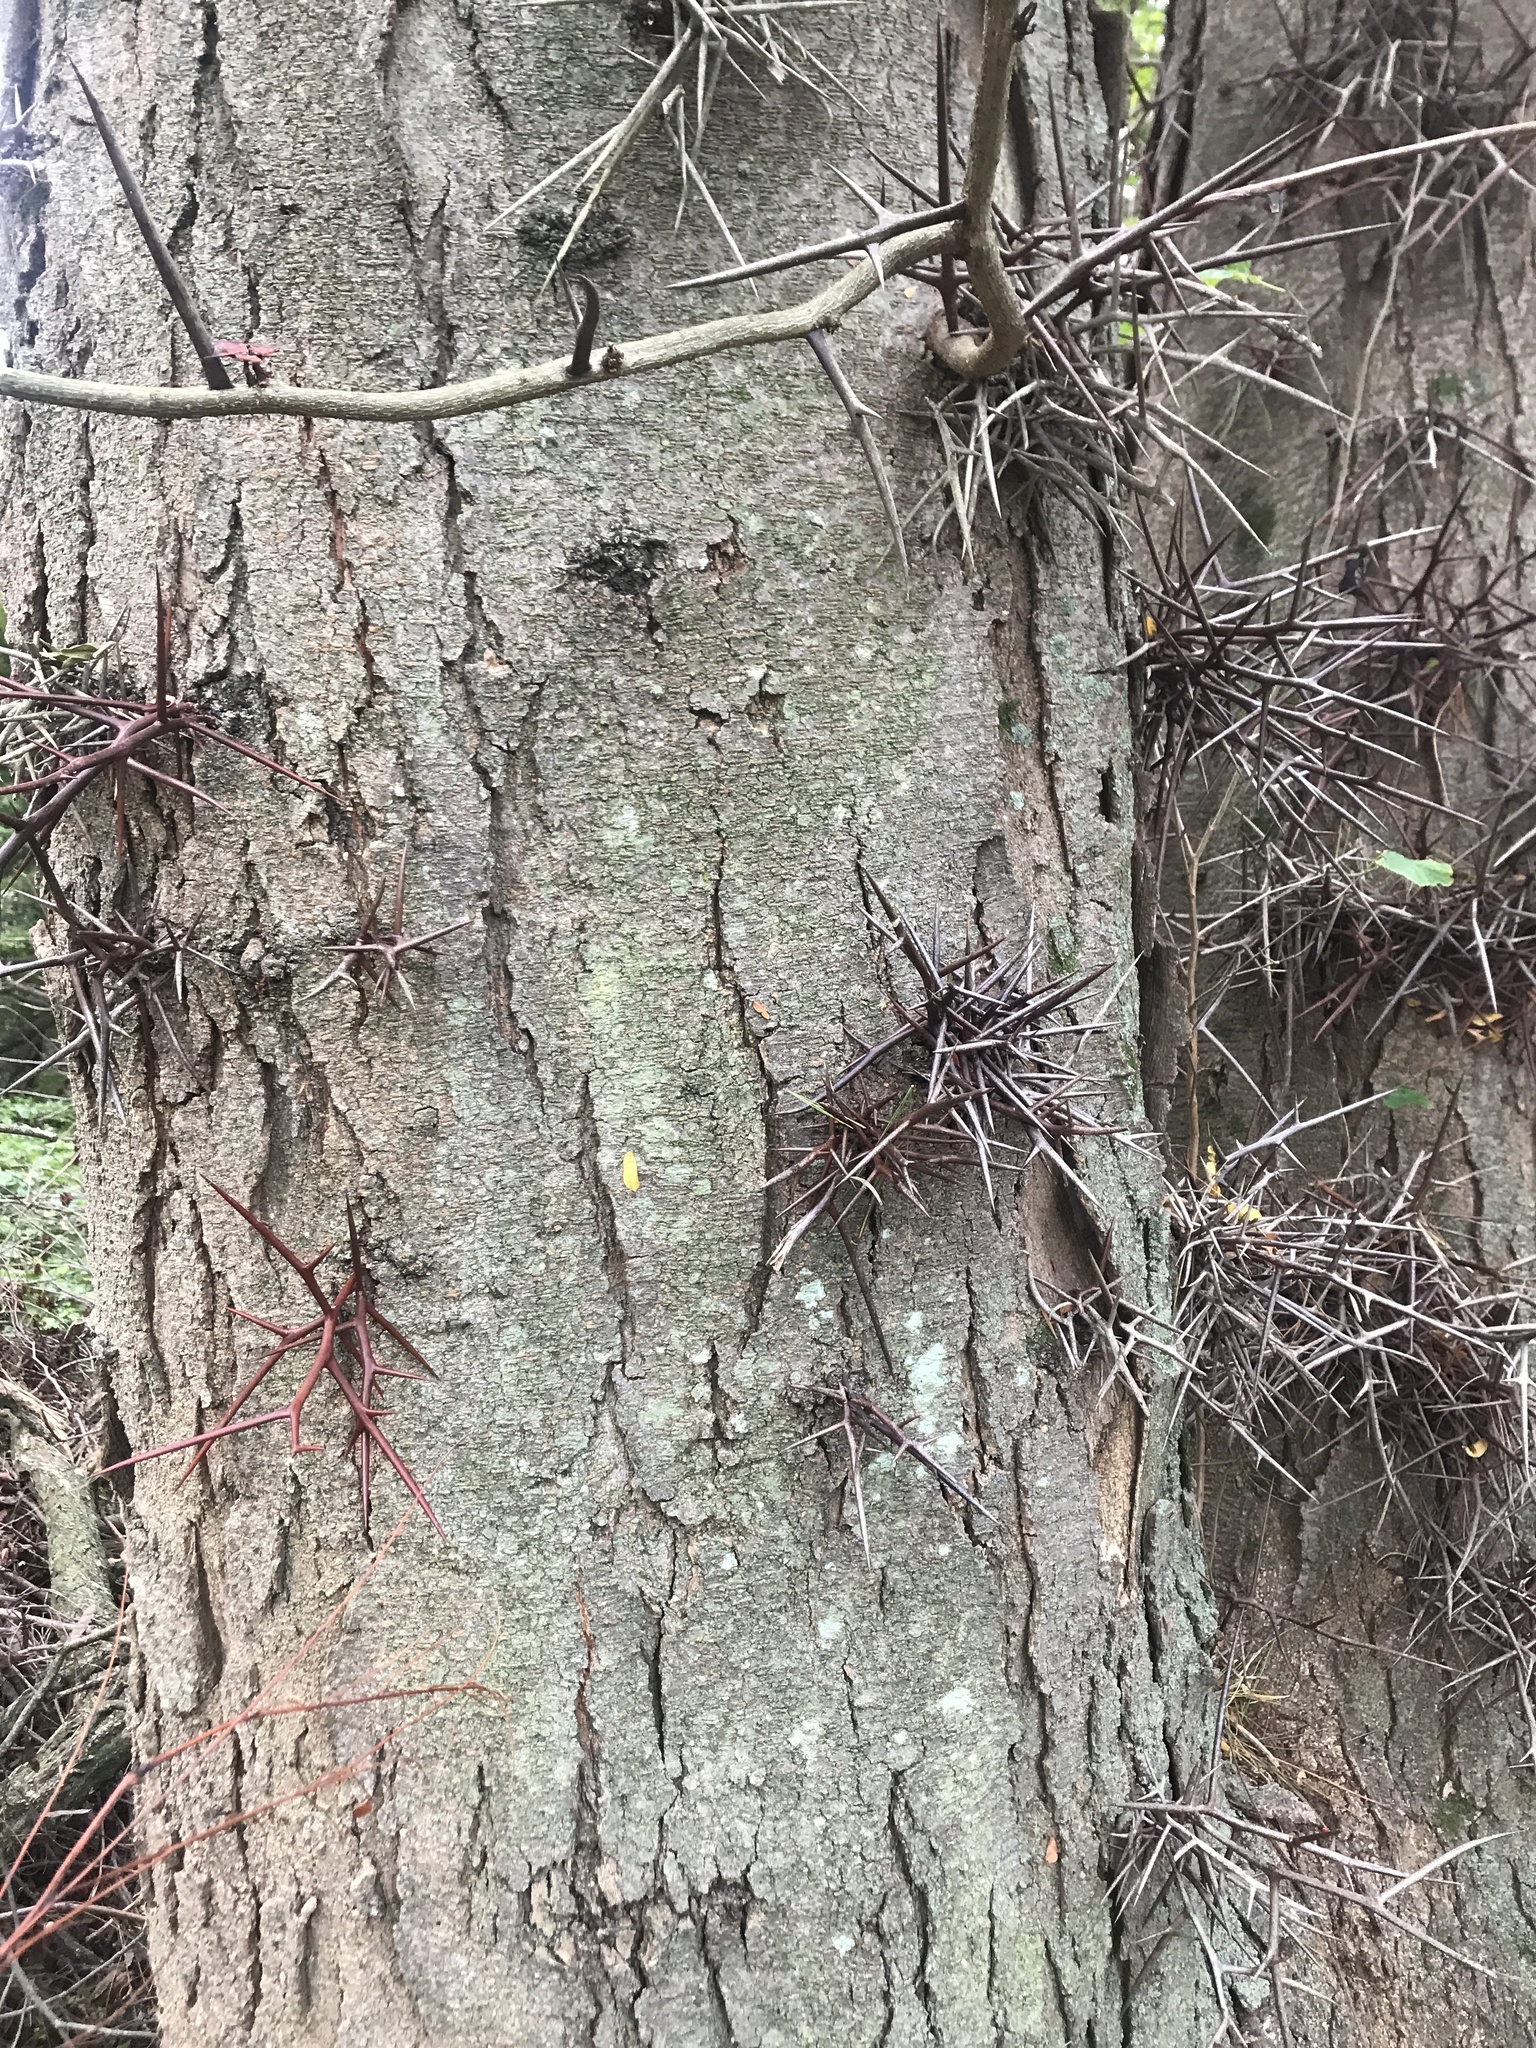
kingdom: Plantae
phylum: Tracheophyta
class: Magnoliopsida
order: Fabales
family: Fabaceae
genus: Gleditsia
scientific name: Gleditsia triacanthos
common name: Common honeylocust
